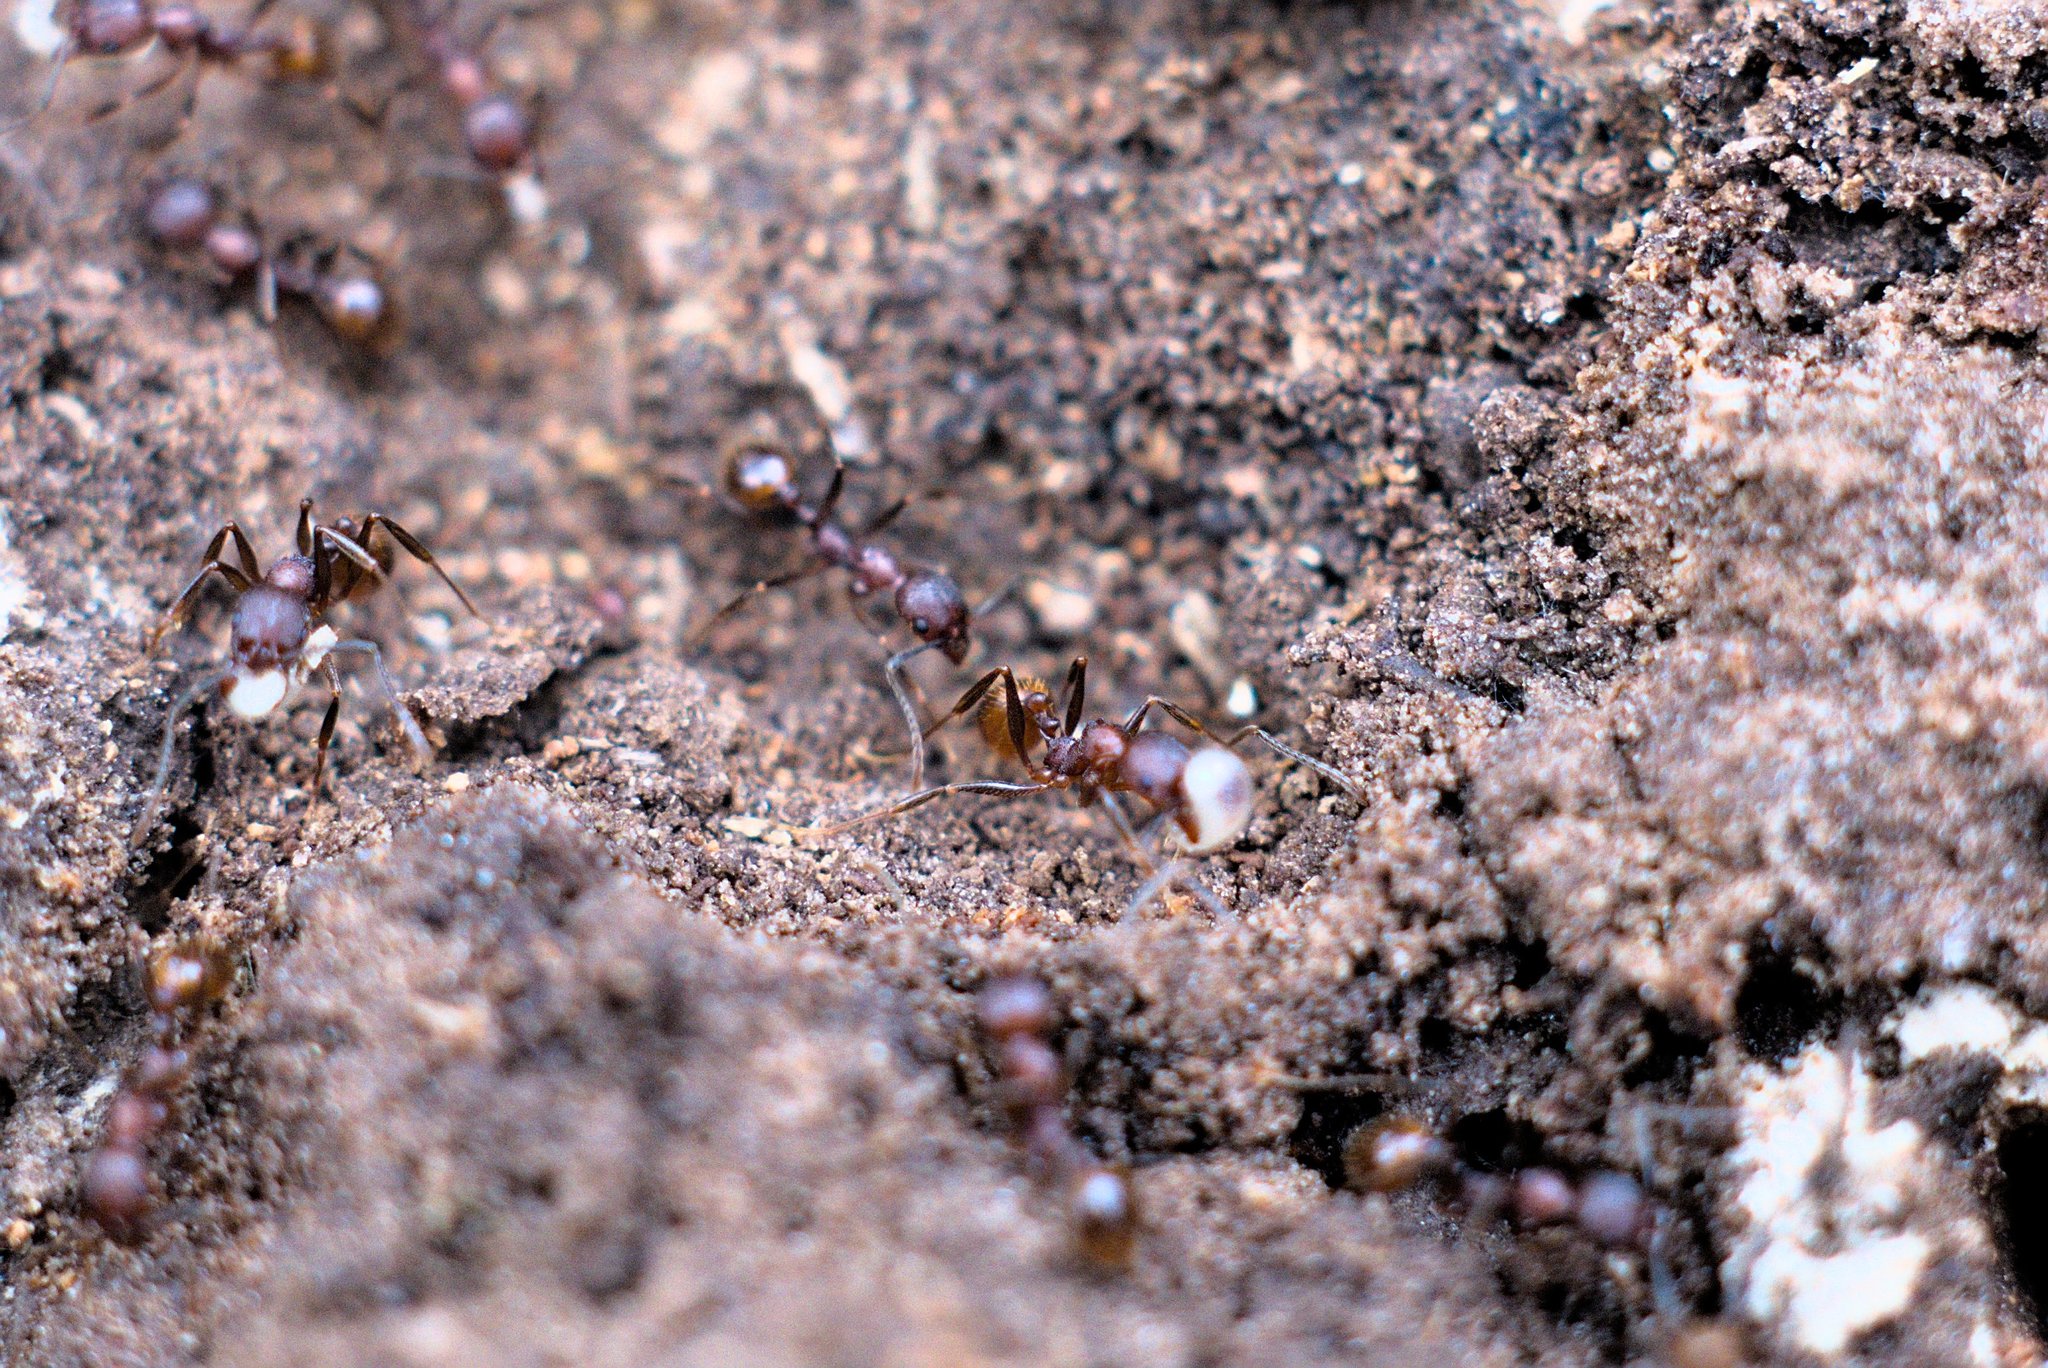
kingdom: Animalia
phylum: Arthropoda
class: Insecta
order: Hymenoptera
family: Formicidae
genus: Aphaenogaster
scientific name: Aphaenogaster lamellidens
